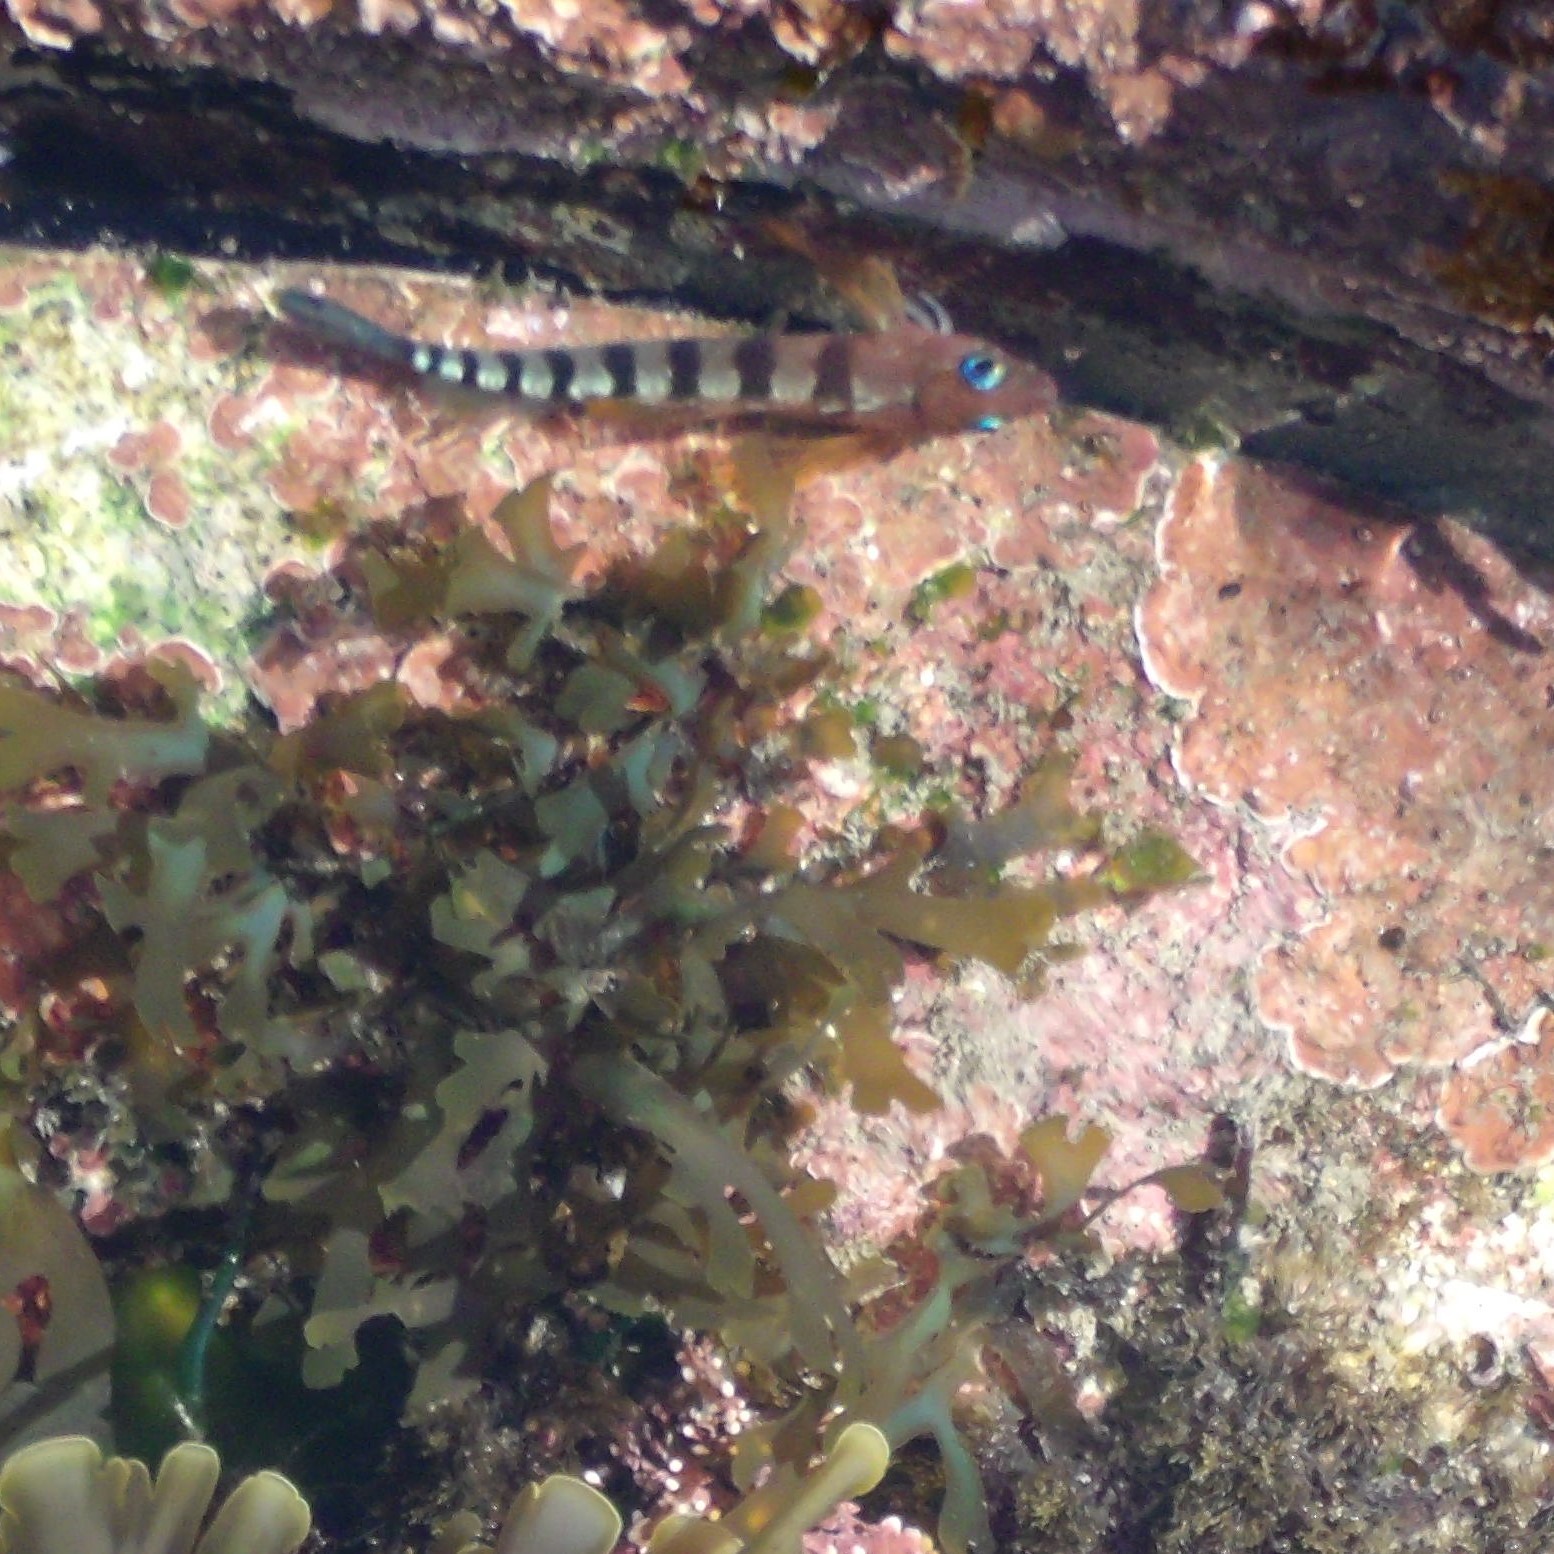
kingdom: Animalia
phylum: Chordata
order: Perciformes
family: Tripterygiidae
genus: Notoclinops
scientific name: Notoclinops segmentatus
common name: Blue-eyed triplefin
